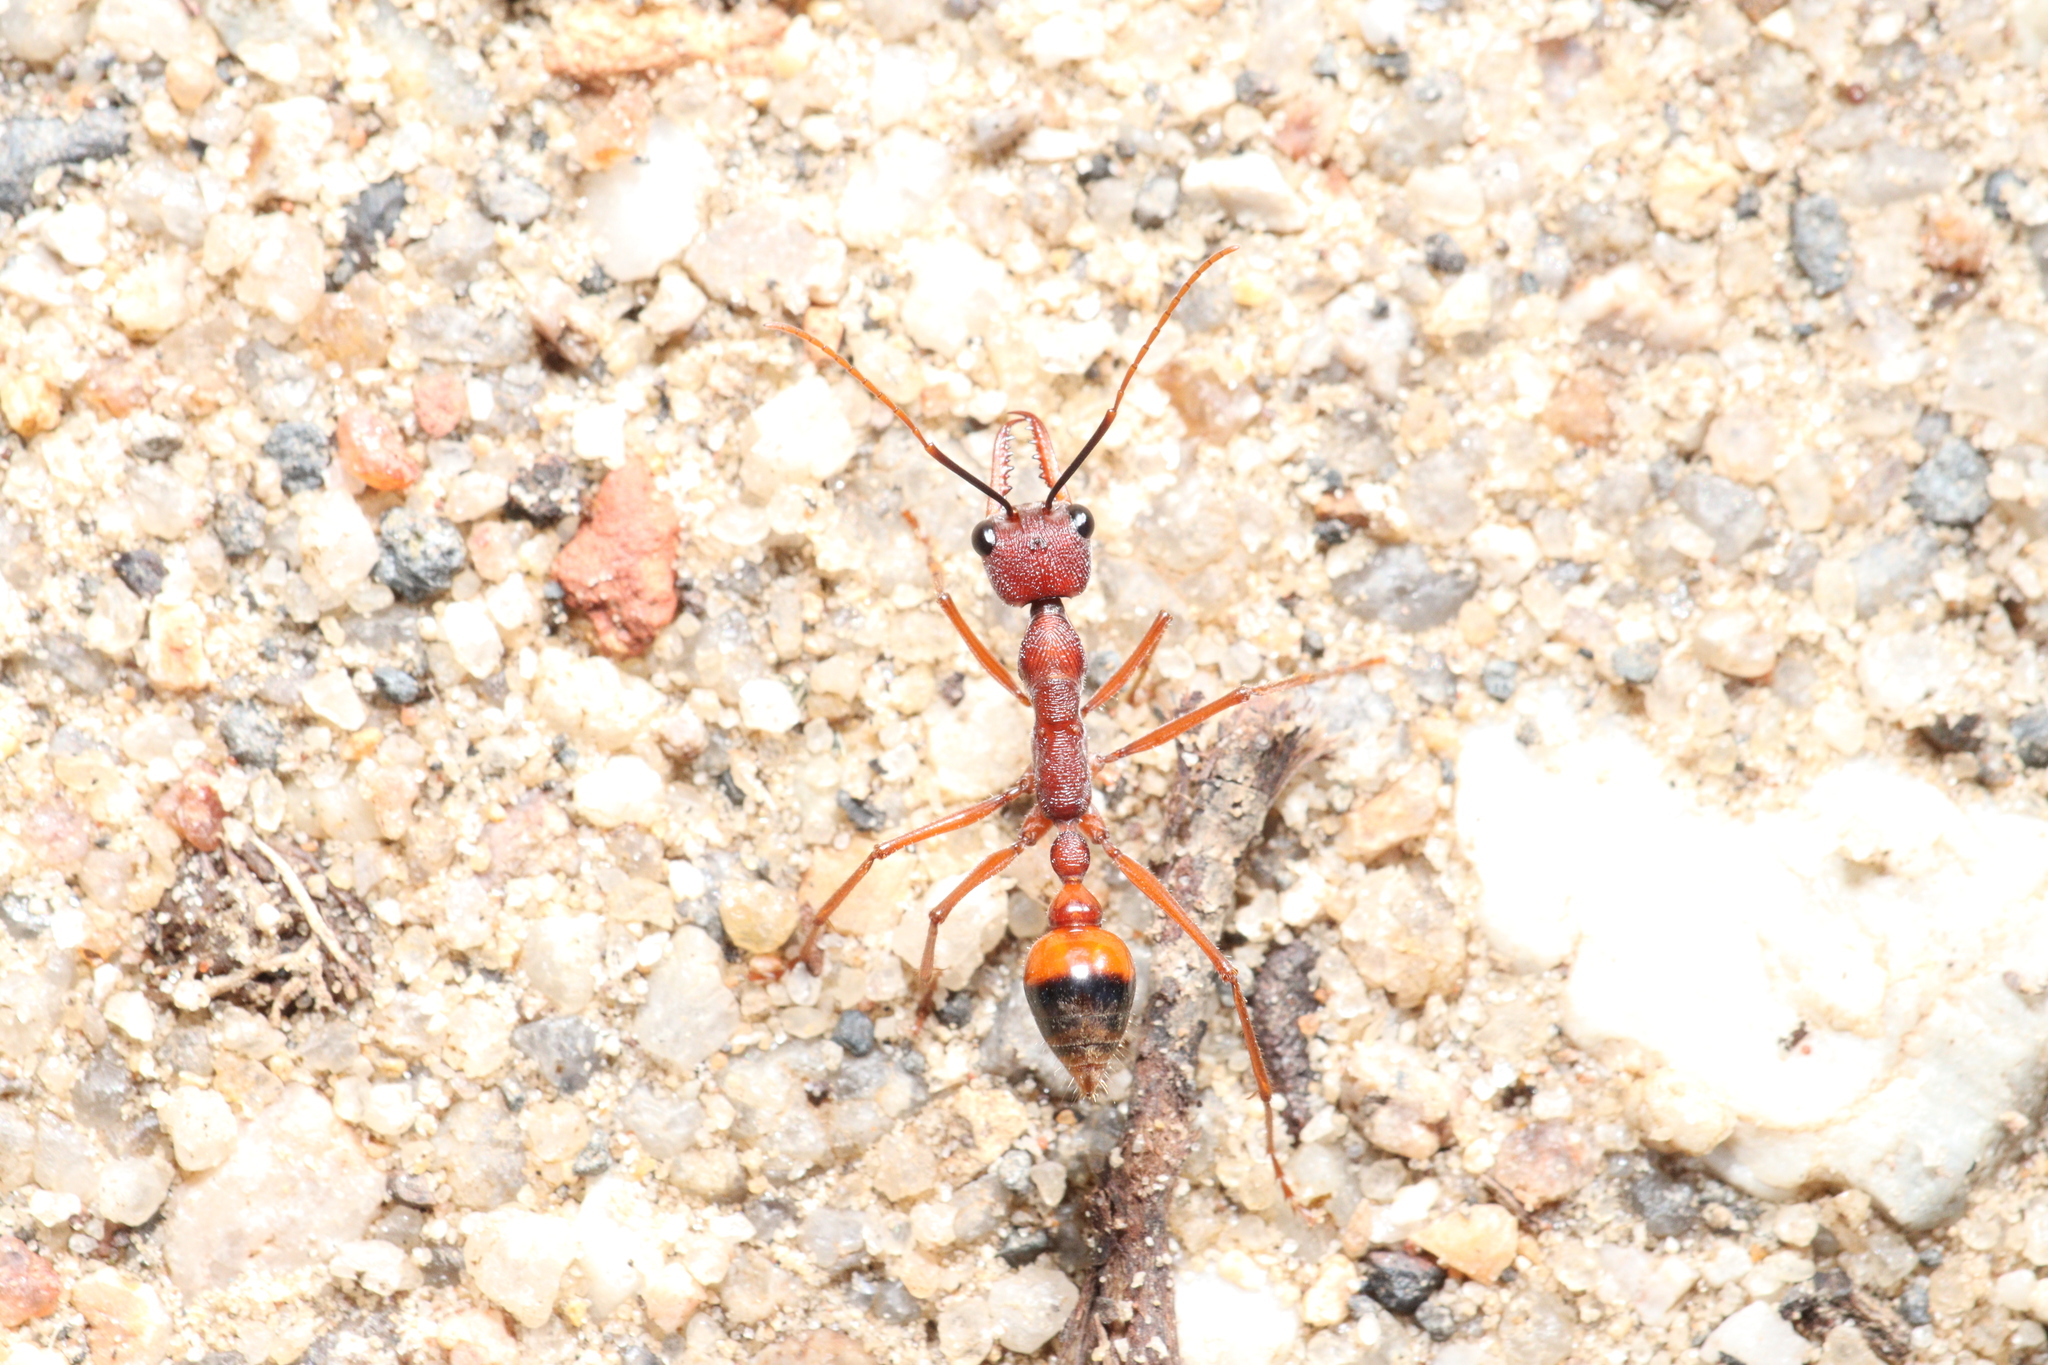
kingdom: Animalia
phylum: Arthropoda
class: Insecta
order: Hymenoptera
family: Formicidae
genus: Myrmecia
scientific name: Myrmecia nigriscapa
